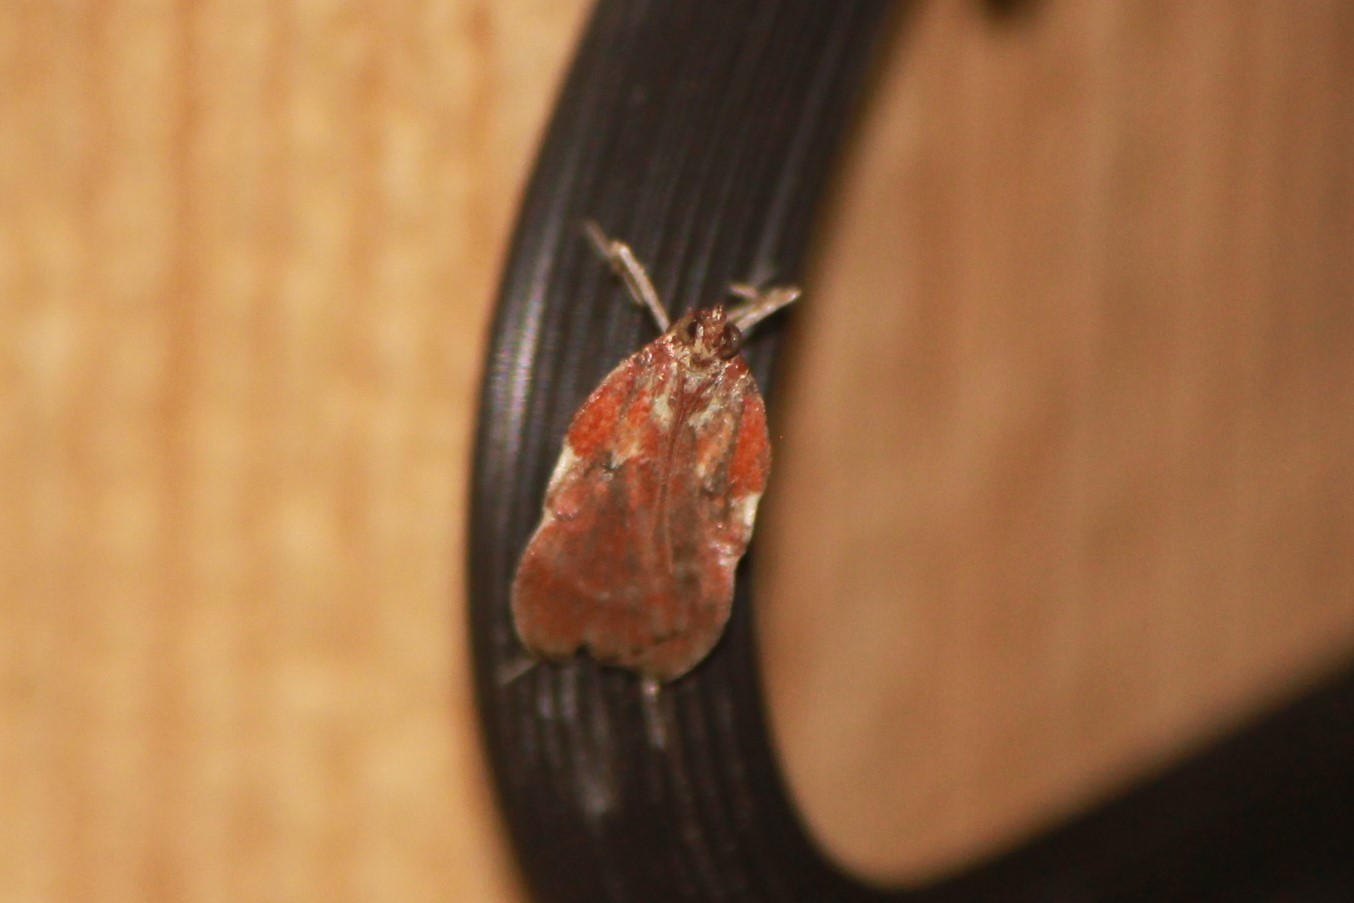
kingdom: Animalia
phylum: Arthropoda
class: Insecta
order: Lepidoptera
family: Pyralidae
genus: Galasa
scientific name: Galasa nigrinodis
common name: Boxwood leaftier moth
